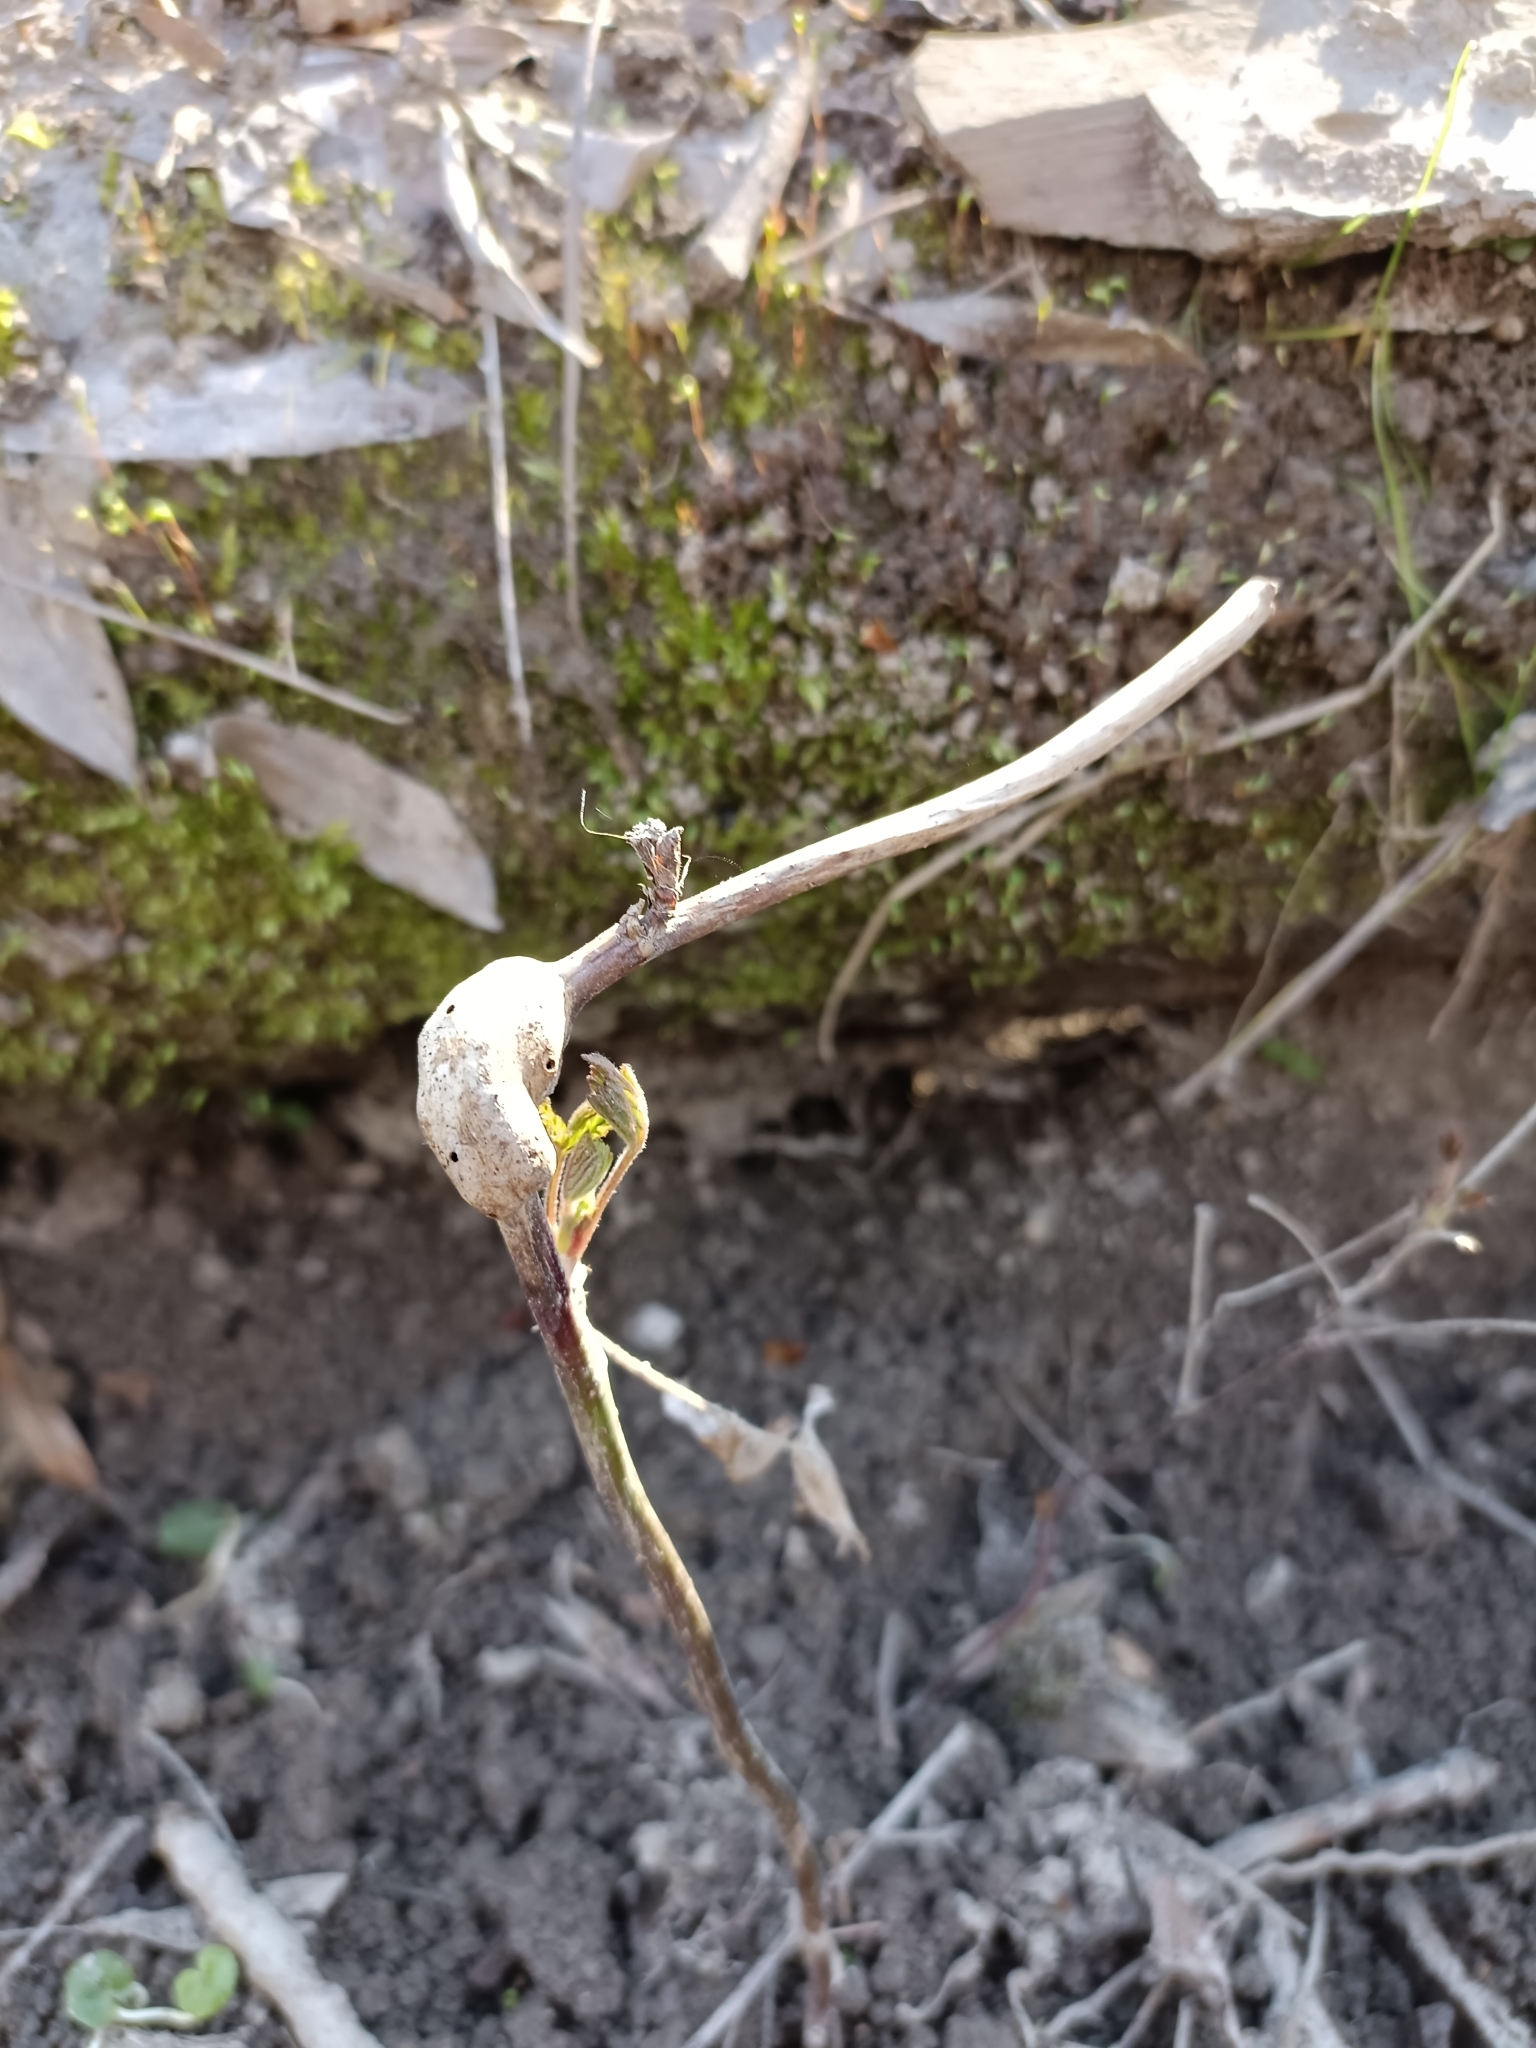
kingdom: Animalia
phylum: Arthropoda
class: Insecta
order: Hymenoptera
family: Cynipidae
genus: Diastrophus
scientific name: Diastrophus rubi
